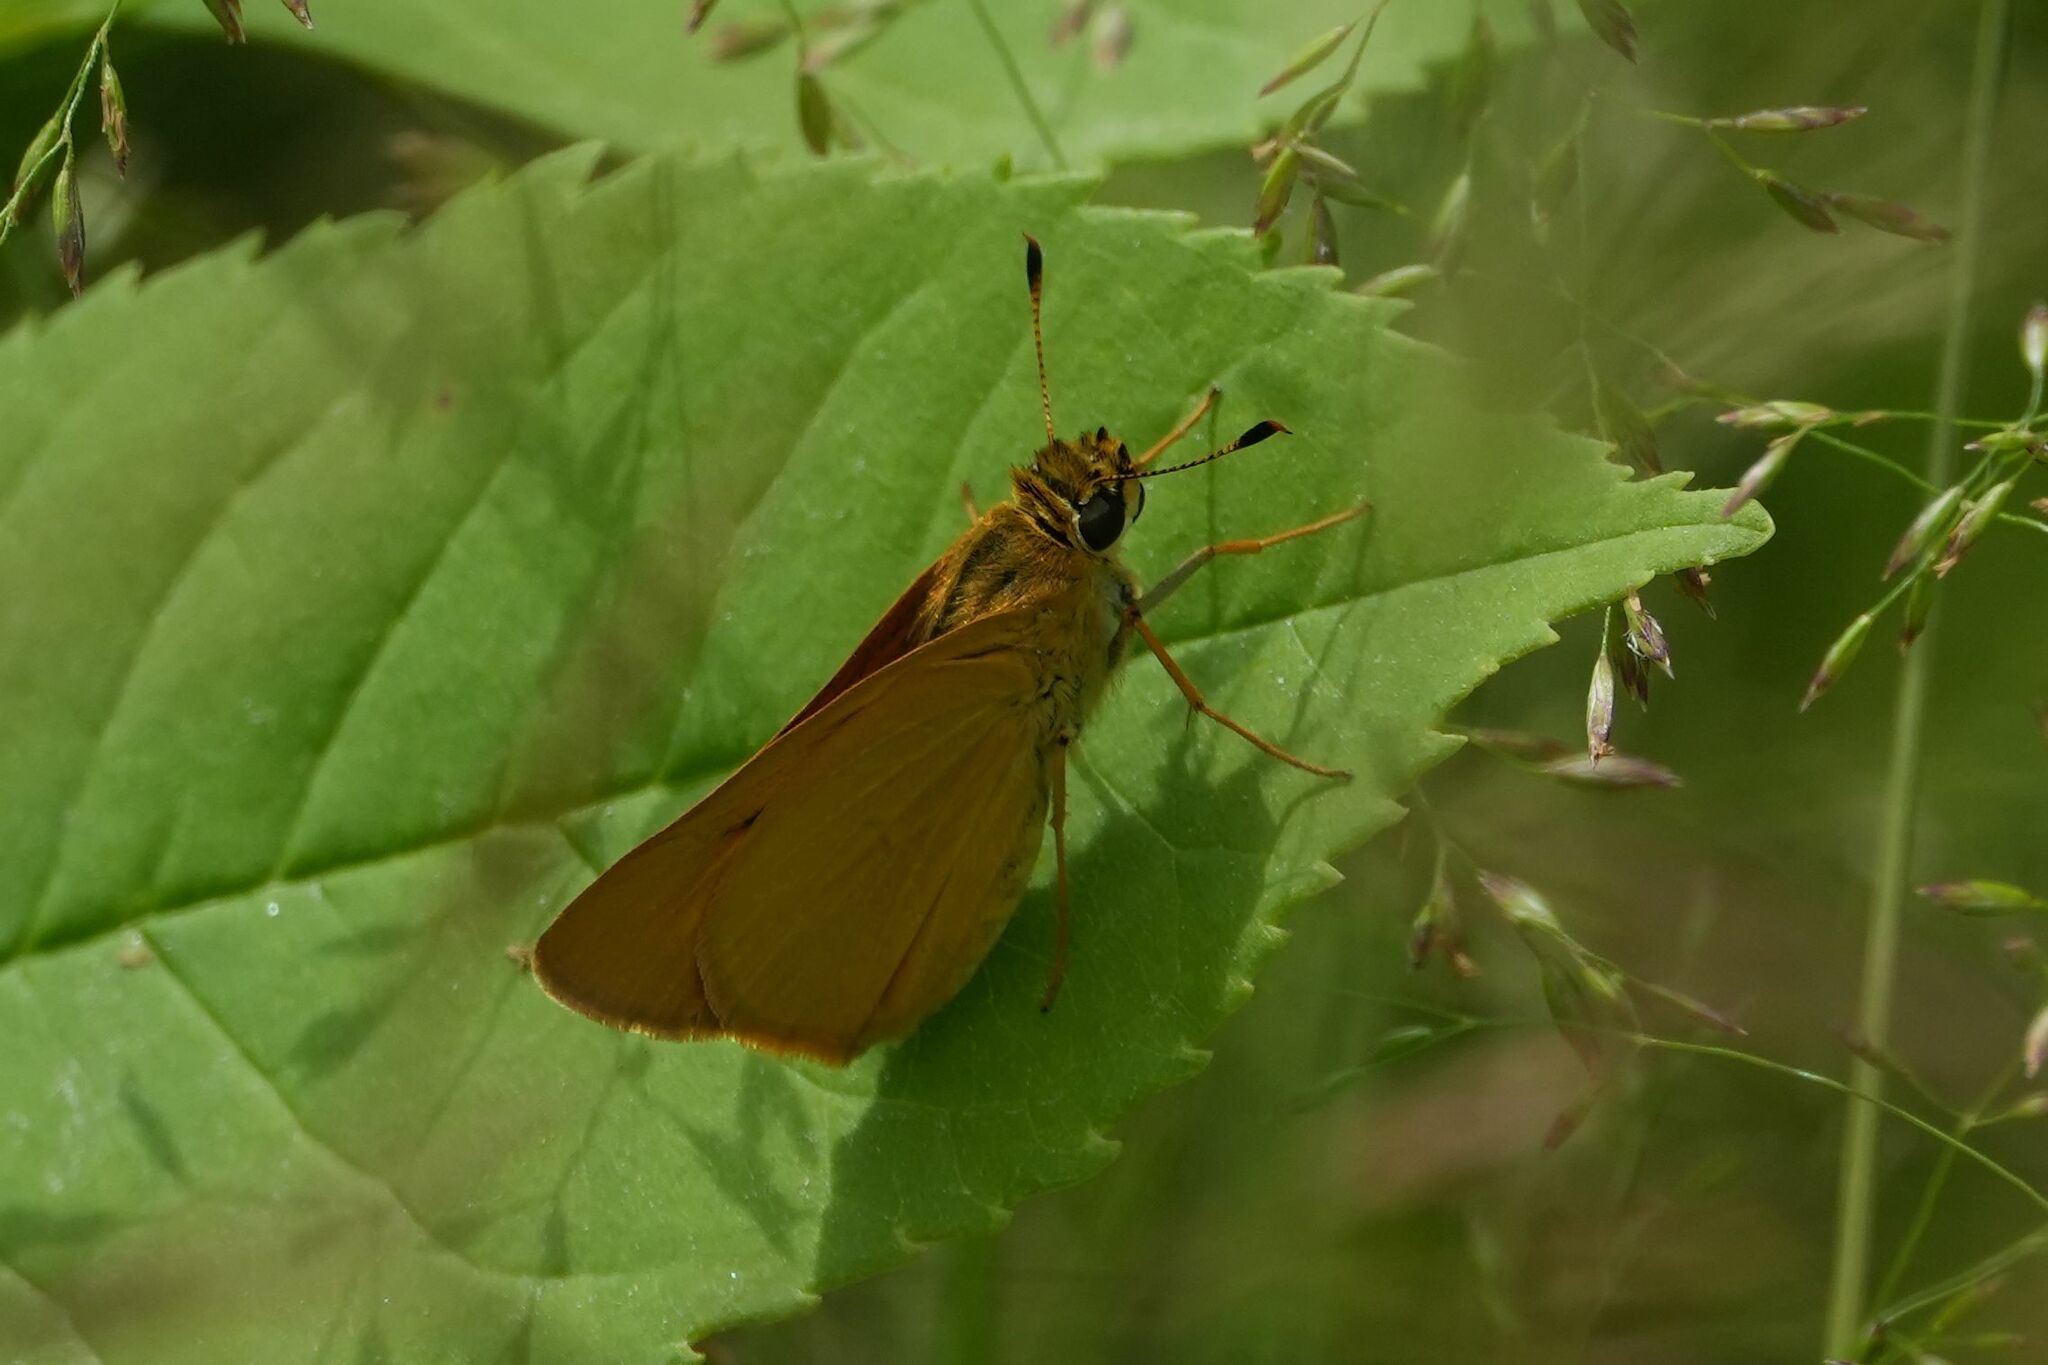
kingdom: Animalia
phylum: Arthropoda
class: Insecta
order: Lepidoptera
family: Hesperiidae
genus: Atrytone
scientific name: Atrytone delaware
